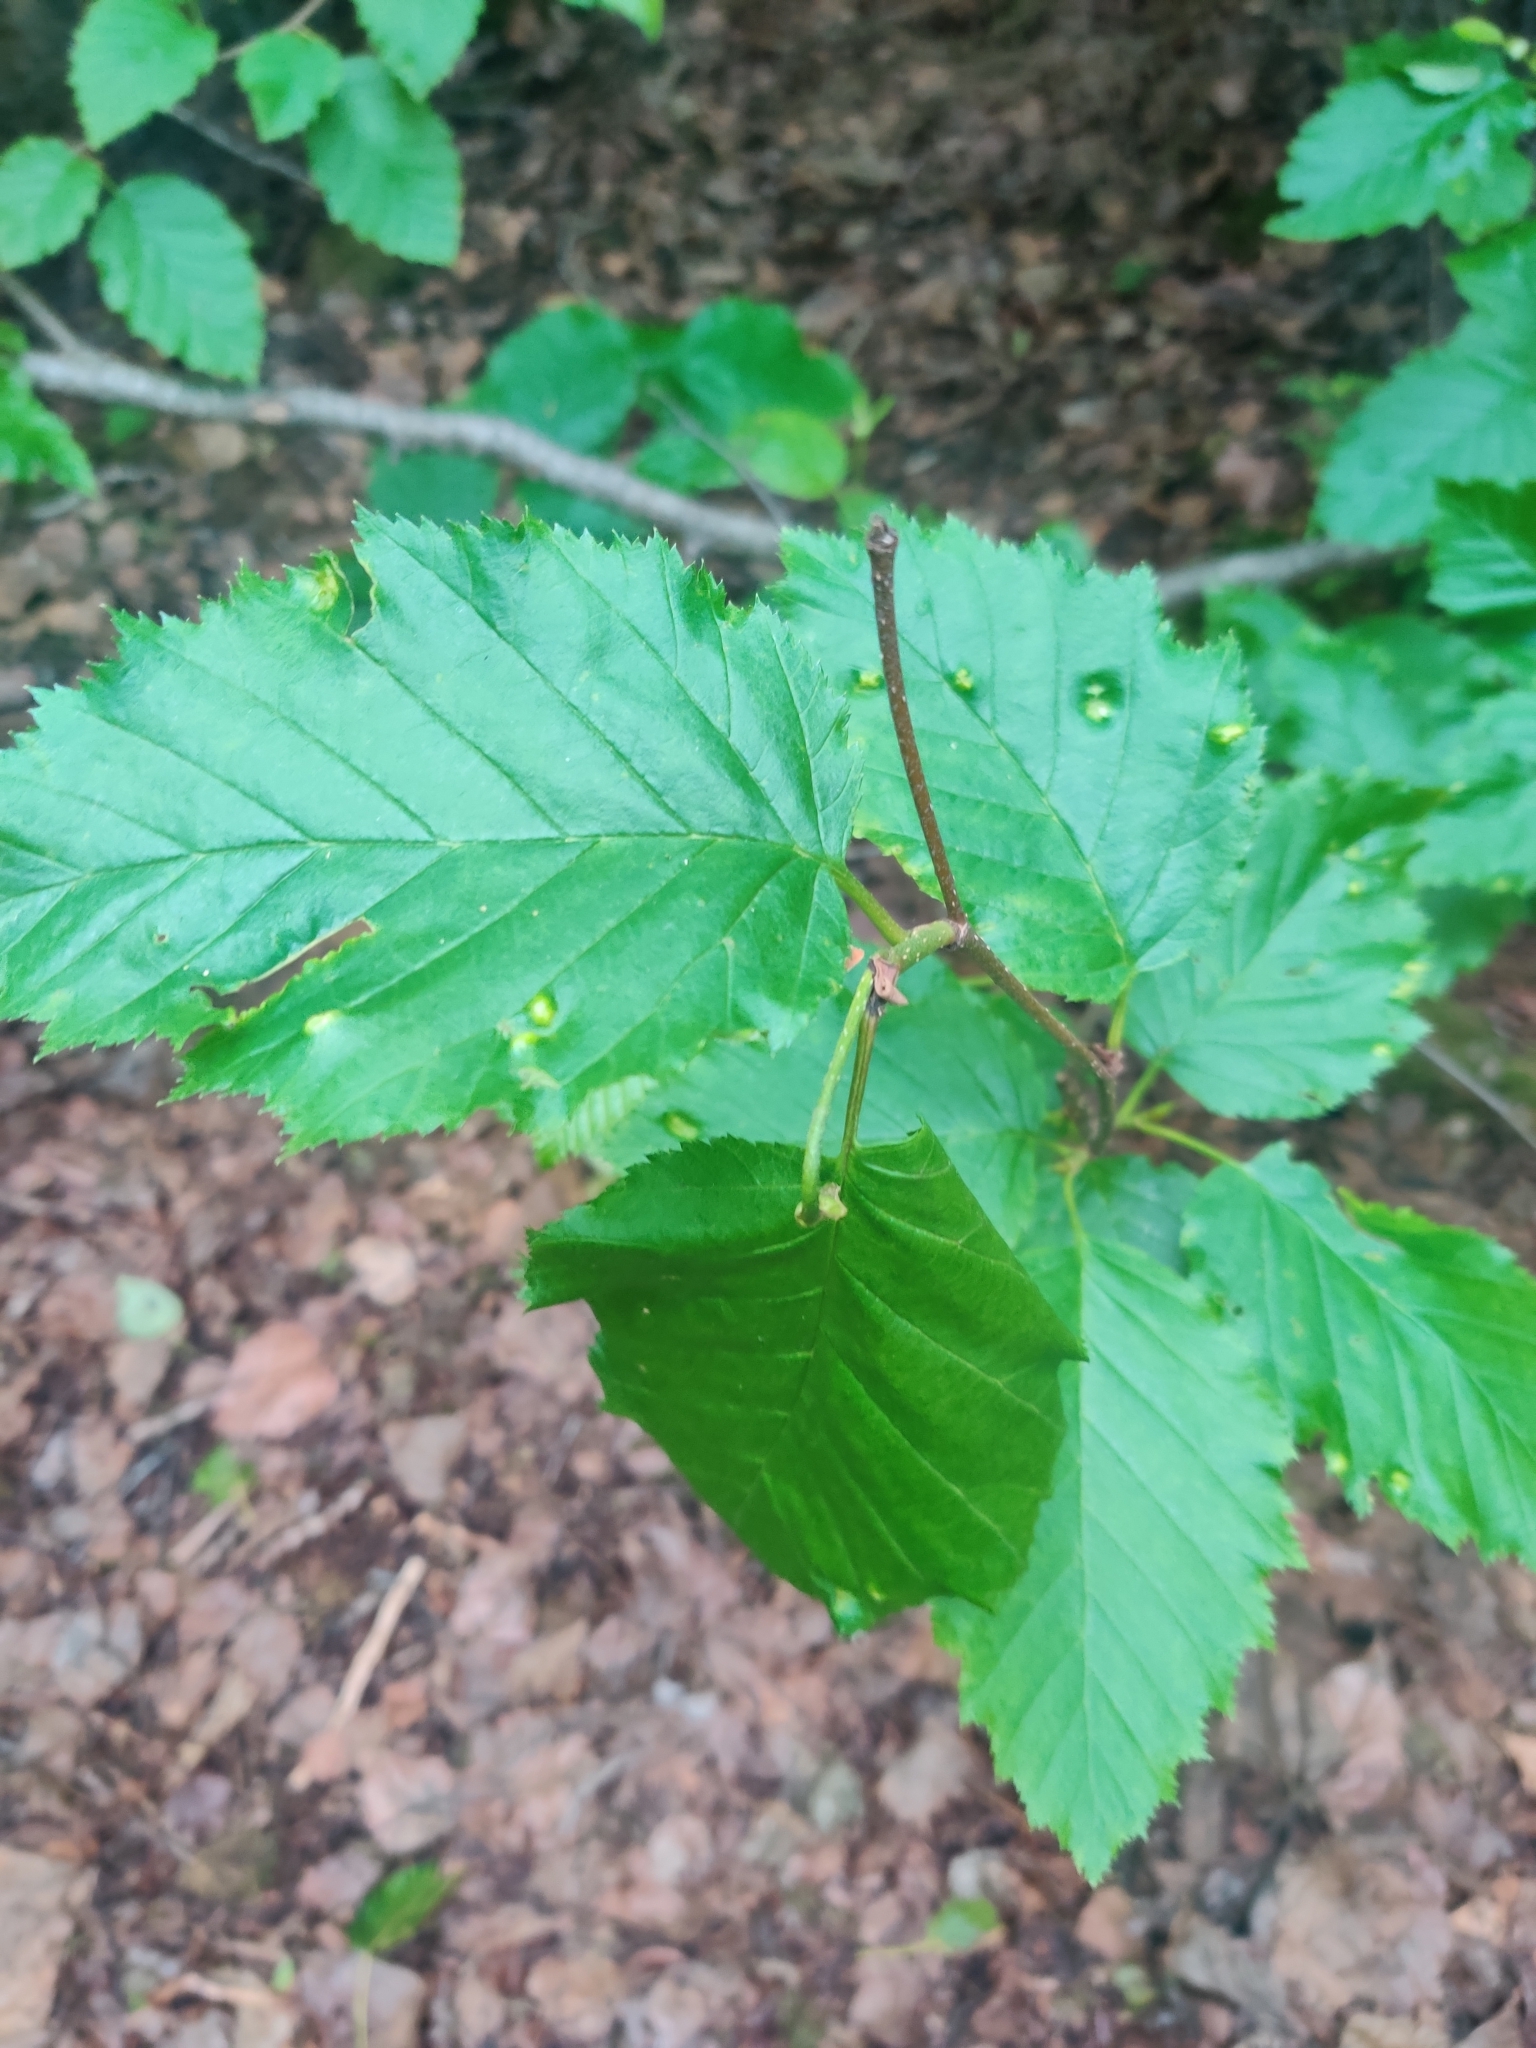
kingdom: Plantae
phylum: Tracheophyta
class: Magnoliopsida
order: Fagales
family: Betulaceae
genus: Alnus
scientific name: Alnus alnobetula
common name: Green alder
